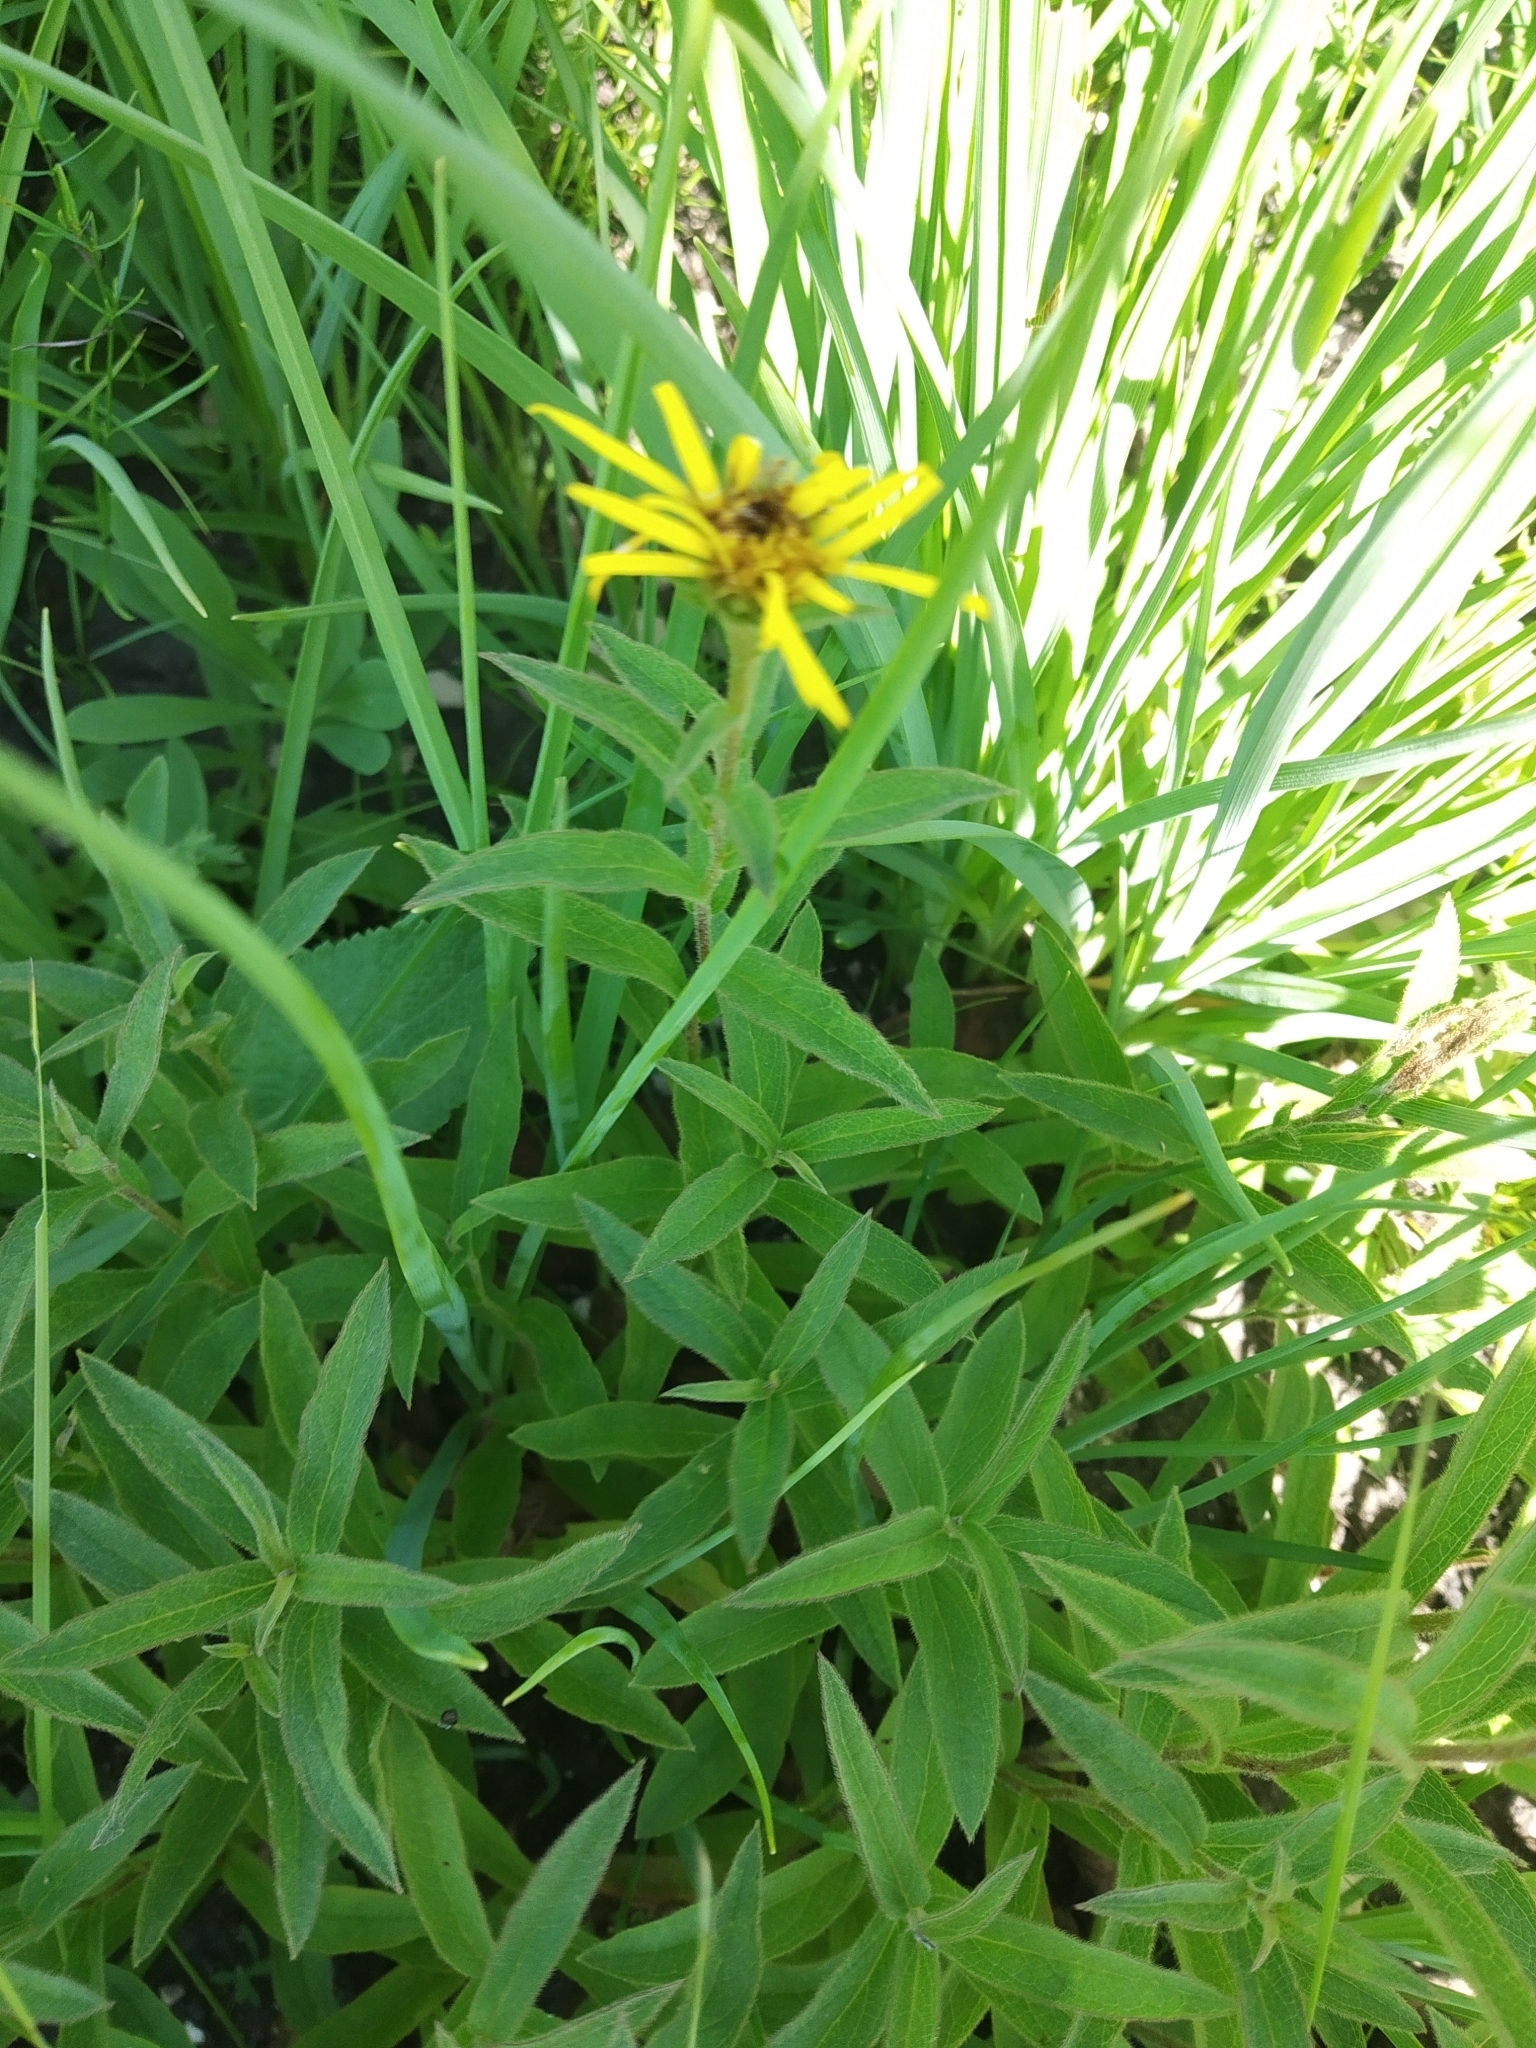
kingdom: Plantae
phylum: Tracheophyta
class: Magnoliopsida
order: Asterales
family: Asteraceae
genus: Pentanema
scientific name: Pentanema hirtum
